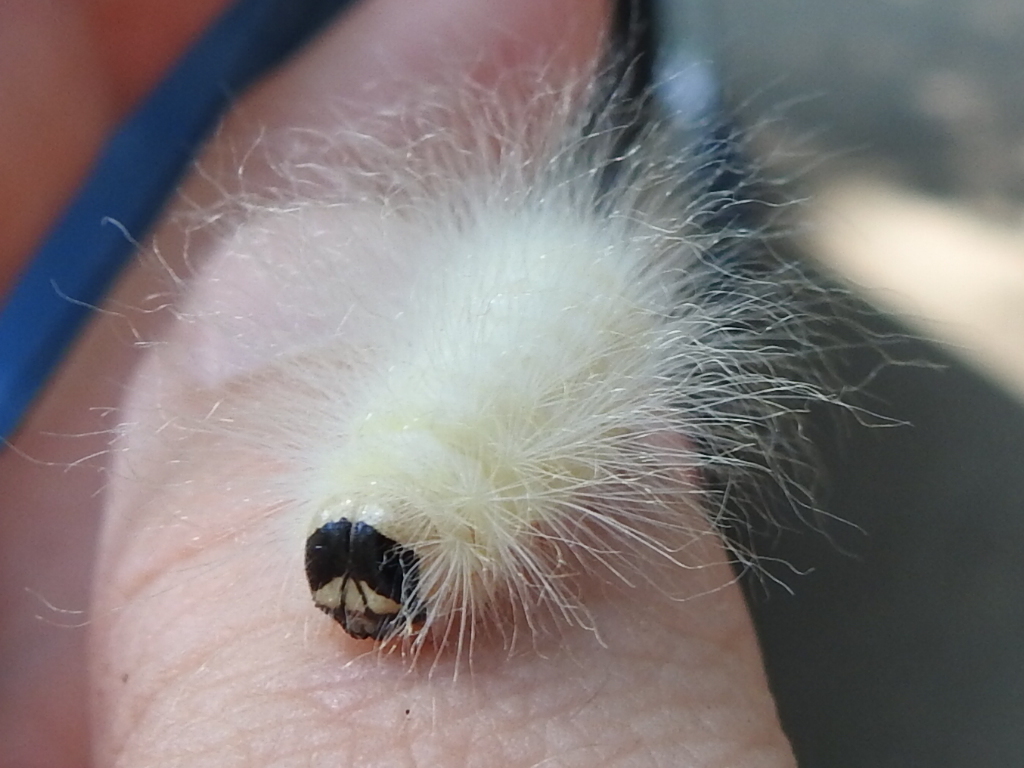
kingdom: Animalia
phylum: Arthropoda
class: Insecta
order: Lepidoptera
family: Noctuidae
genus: Charadra
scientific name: Charadra deridens
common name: Marbled tuffet
